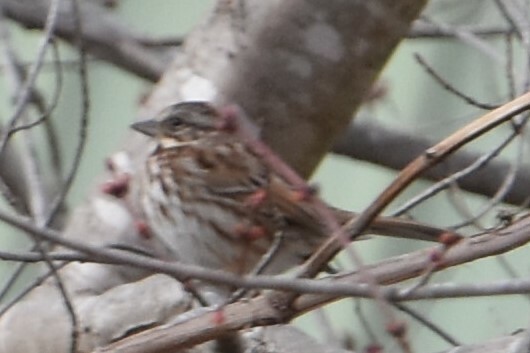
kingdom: Animalia
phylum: Chordata
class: Aves
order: Passeriformes
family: Passerellidae
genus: Melospiza
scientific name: Melospiza melodia
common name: Song sparrow
